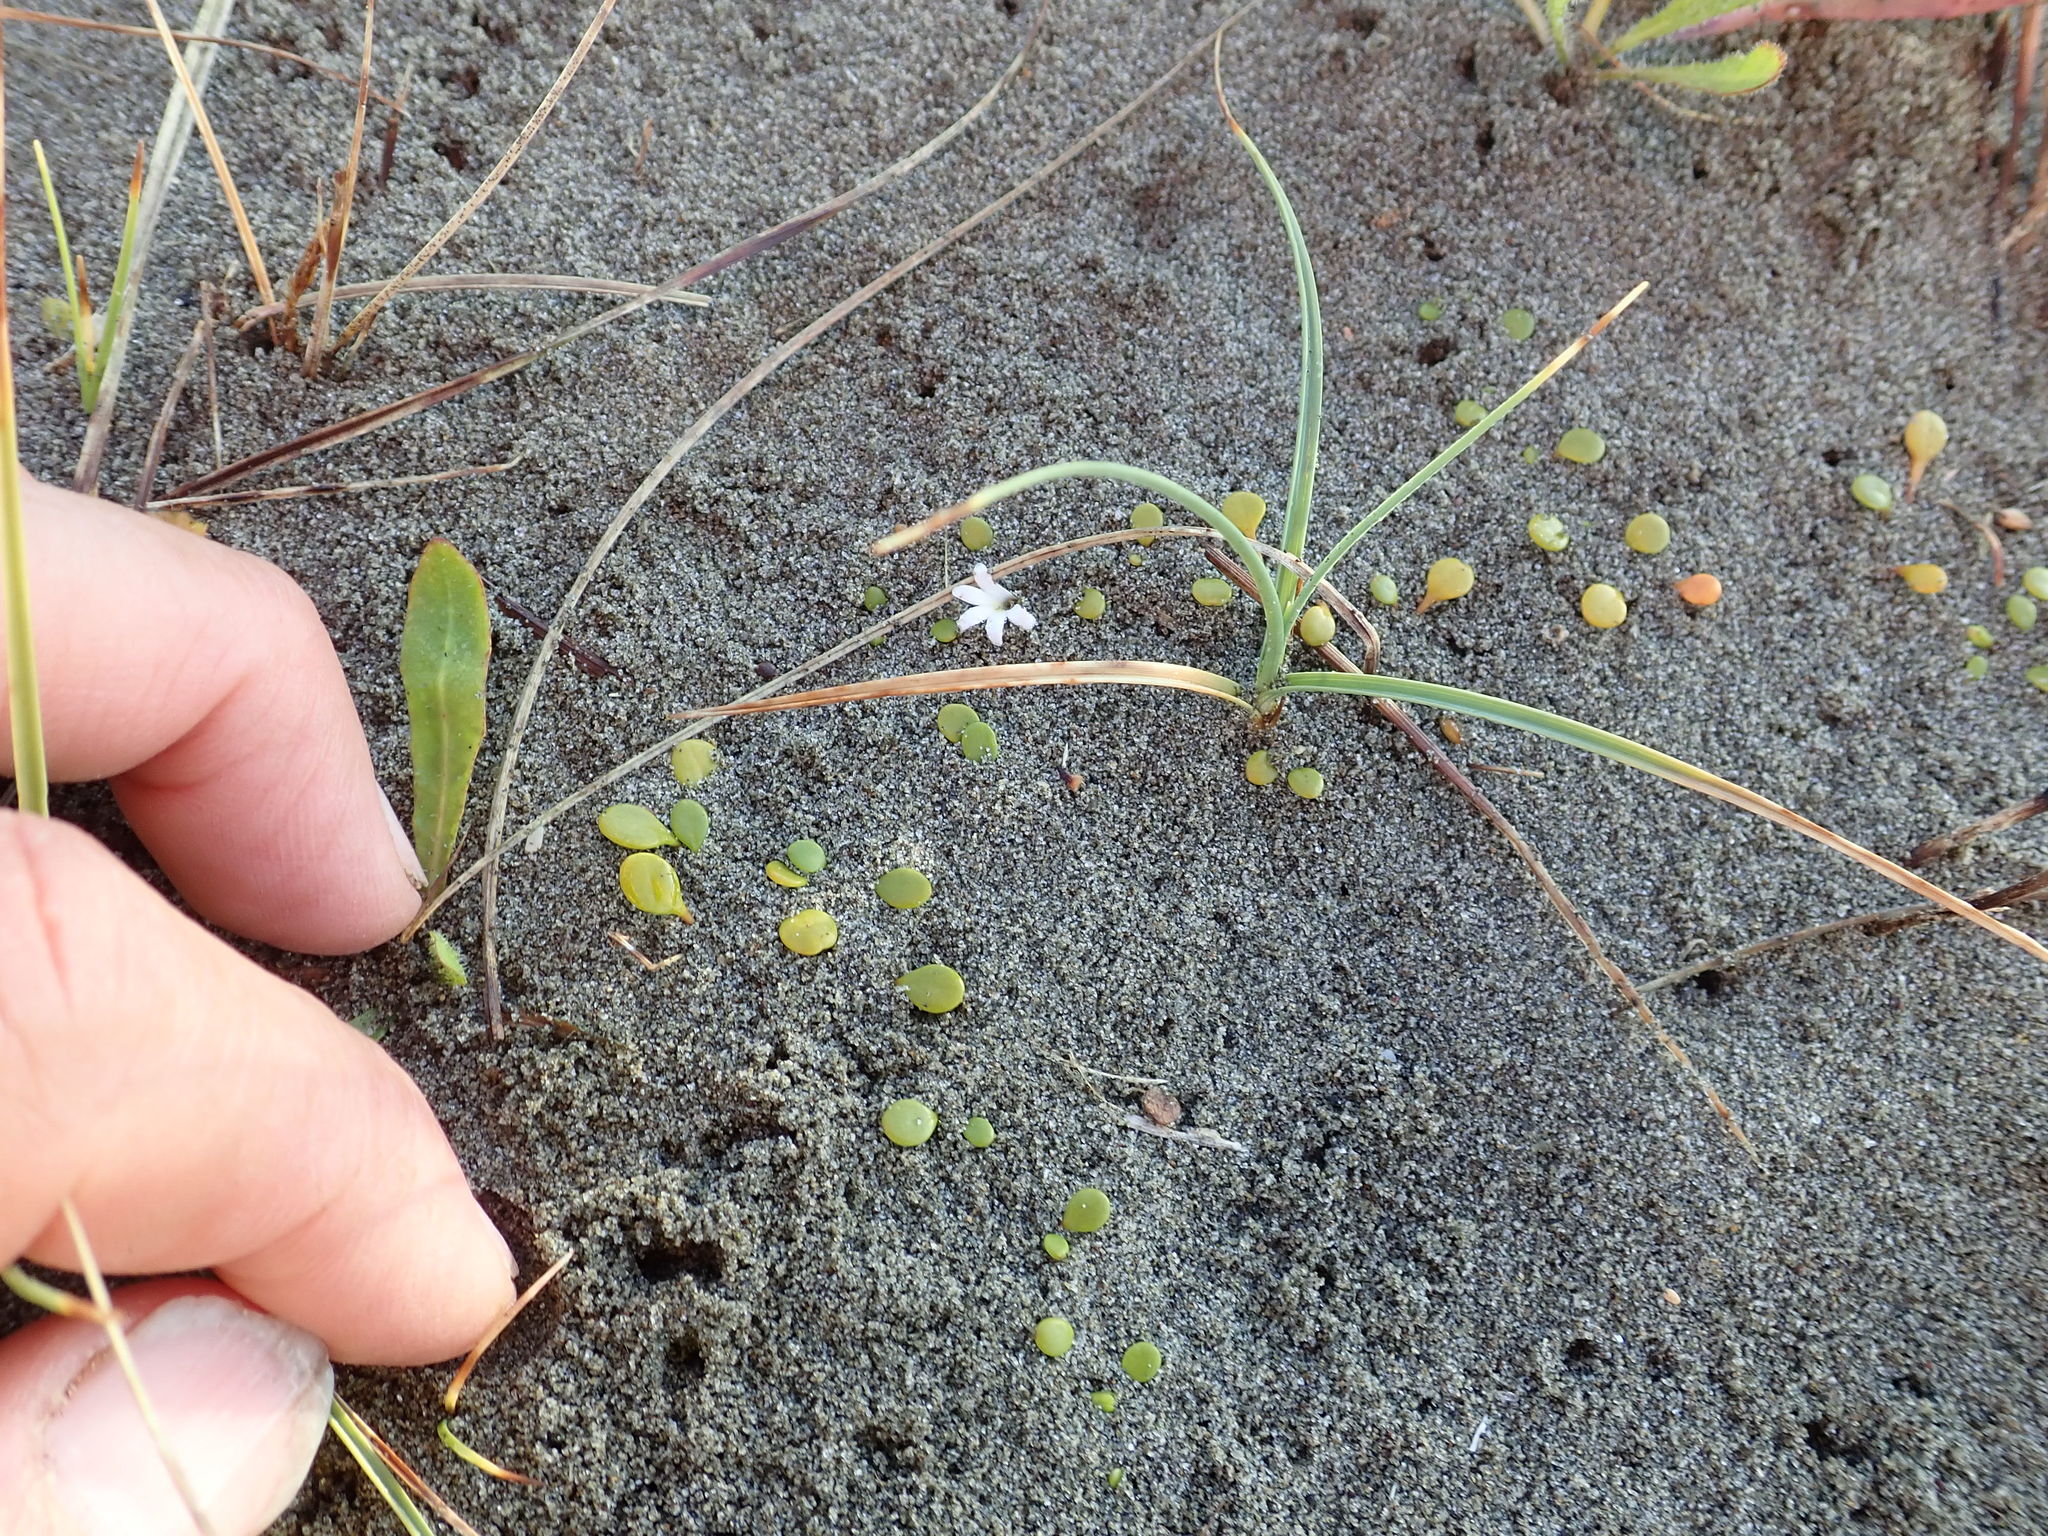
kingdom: Plantae
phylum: Tracheophyta
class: Magnoliopsida
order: Asterales
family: Goodeniaceae
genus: Goodenia
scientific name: Goodenia heenanii
